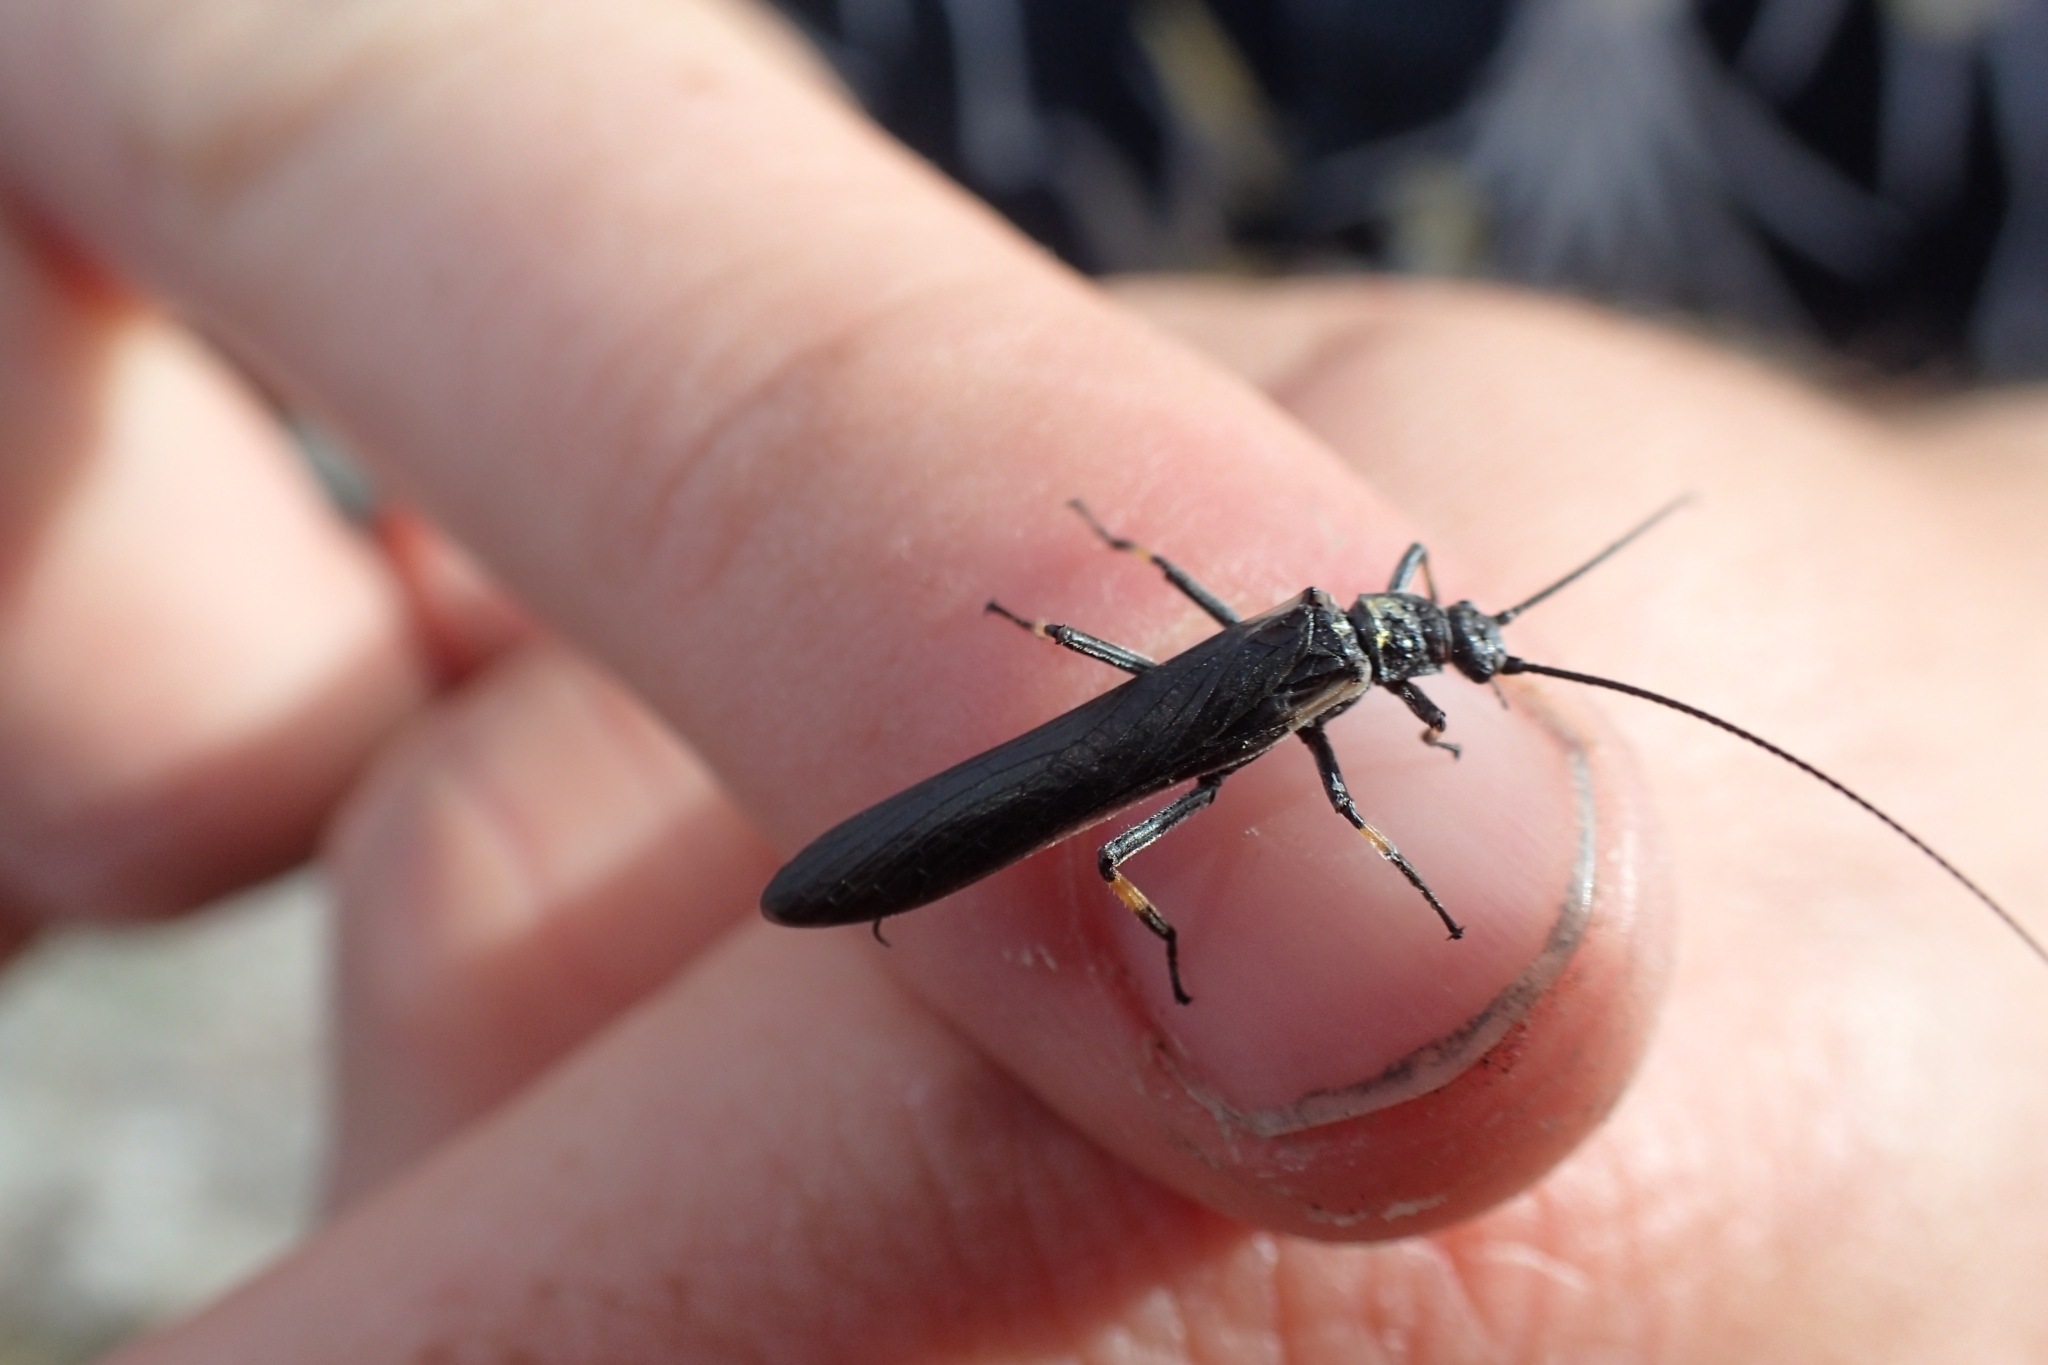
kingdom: Animalia
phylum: Arthropoda
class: Insecta
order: Plecoptera
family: Austroperlidae
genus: Austroperla
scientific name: Austroperla cyrene
